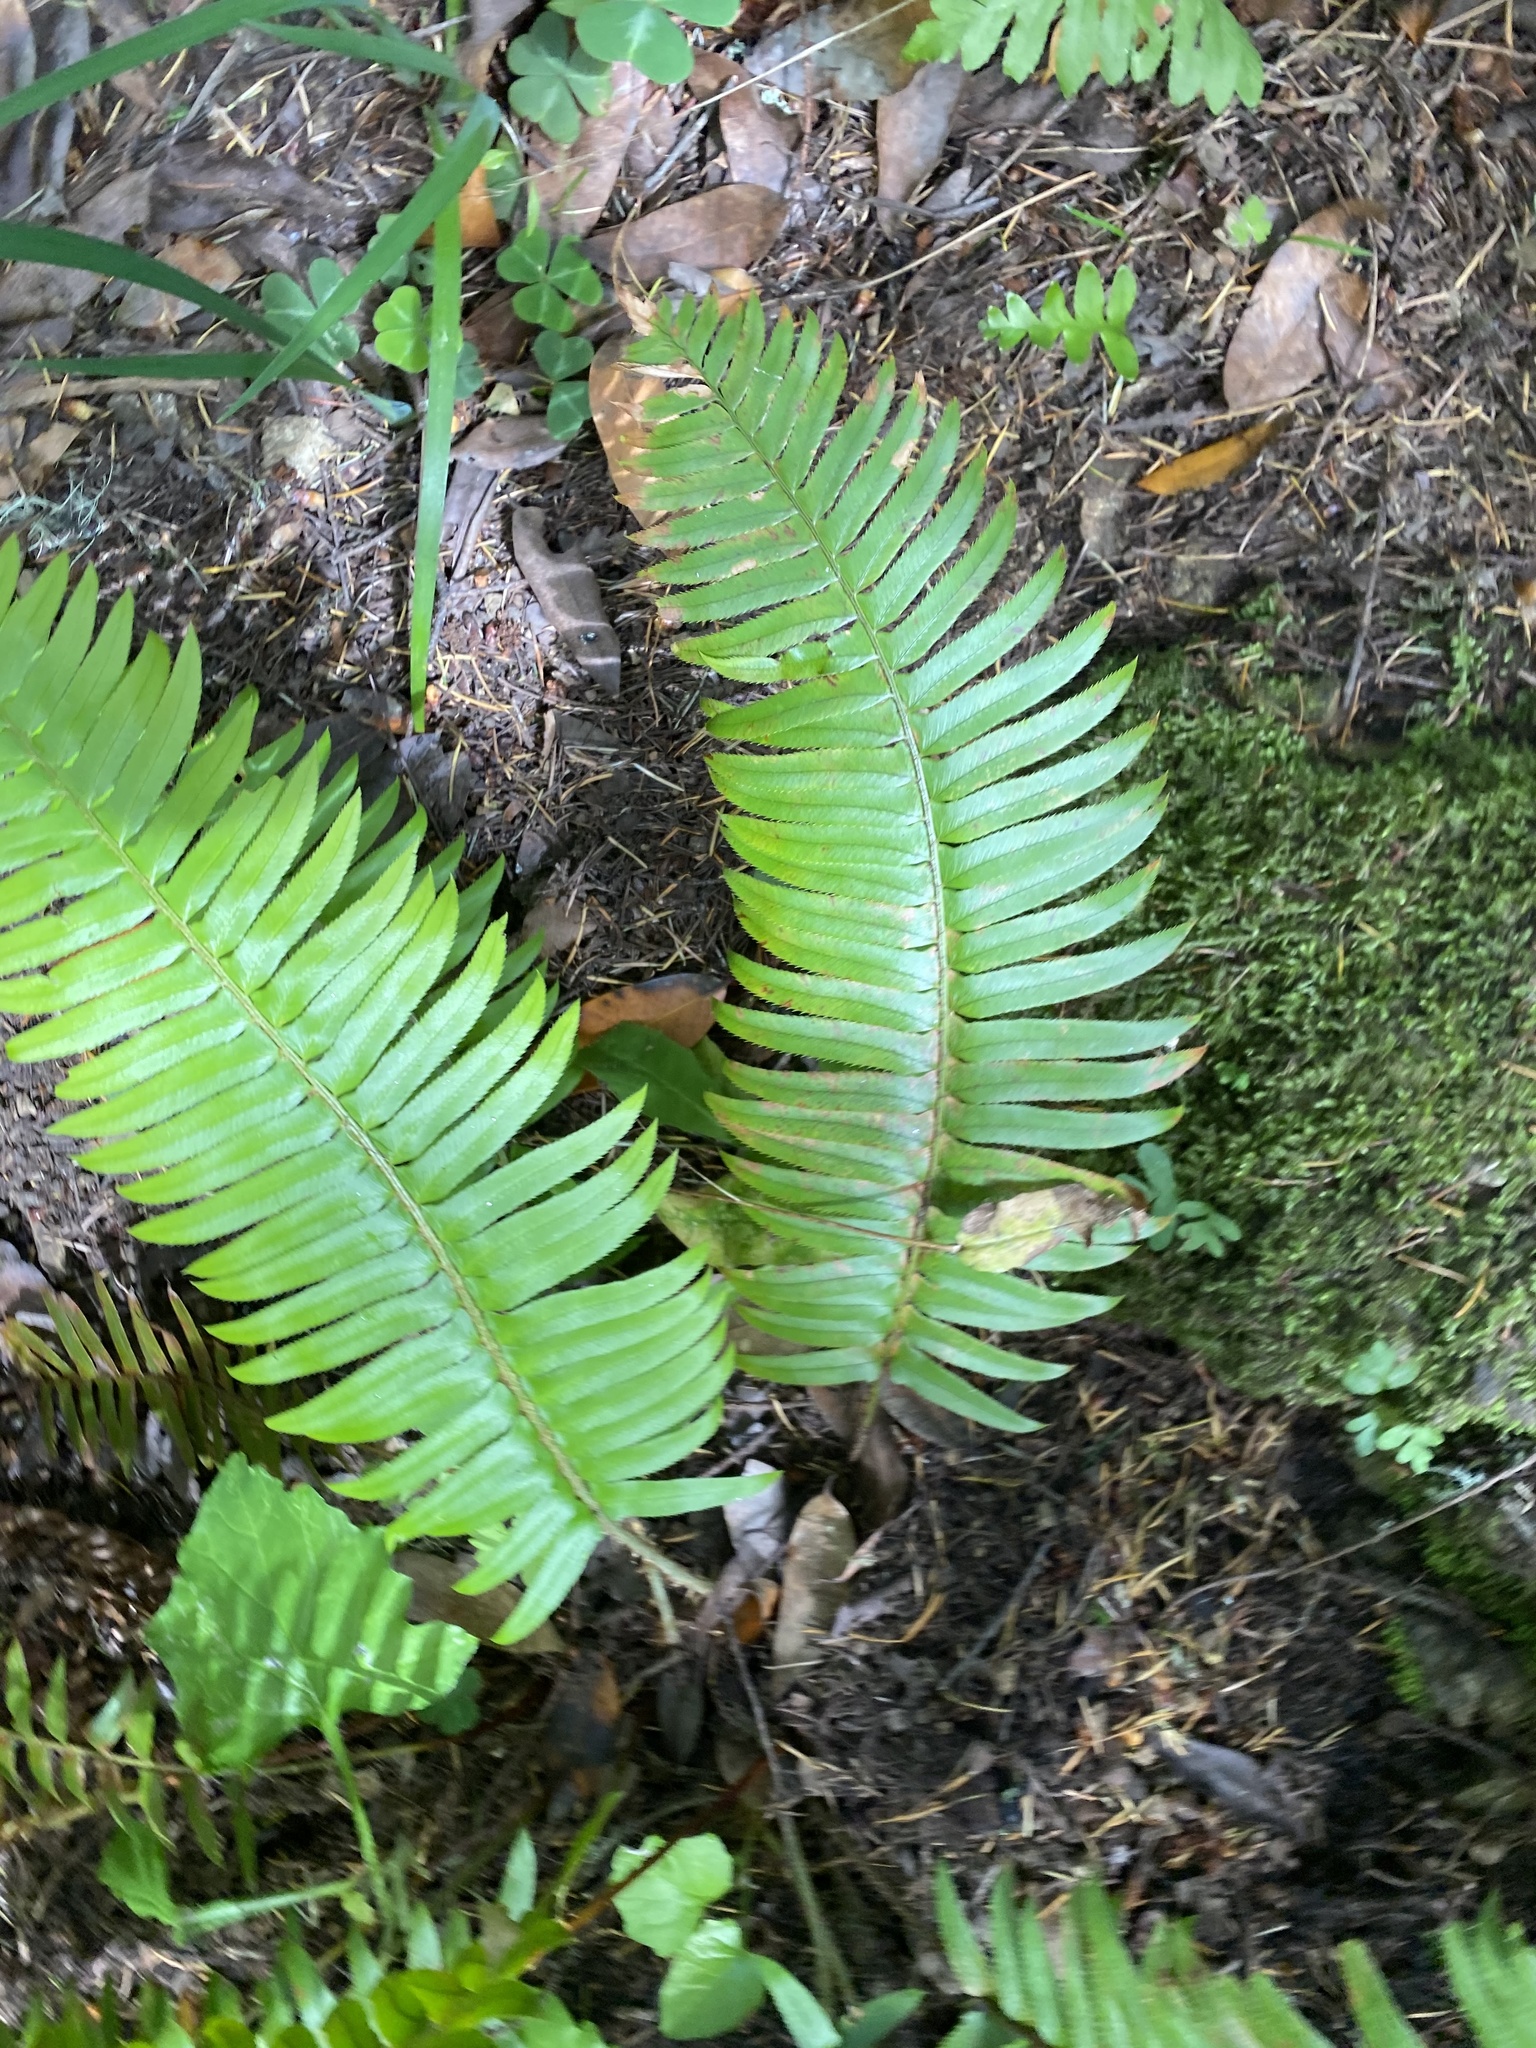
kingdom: Plantae
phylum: Tracheophyta
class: Polypodiopsida
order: Polypodiales
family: Dryopteridaceae
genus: Polystichum
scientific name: Polystichum munitum
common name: Western sword-fern
